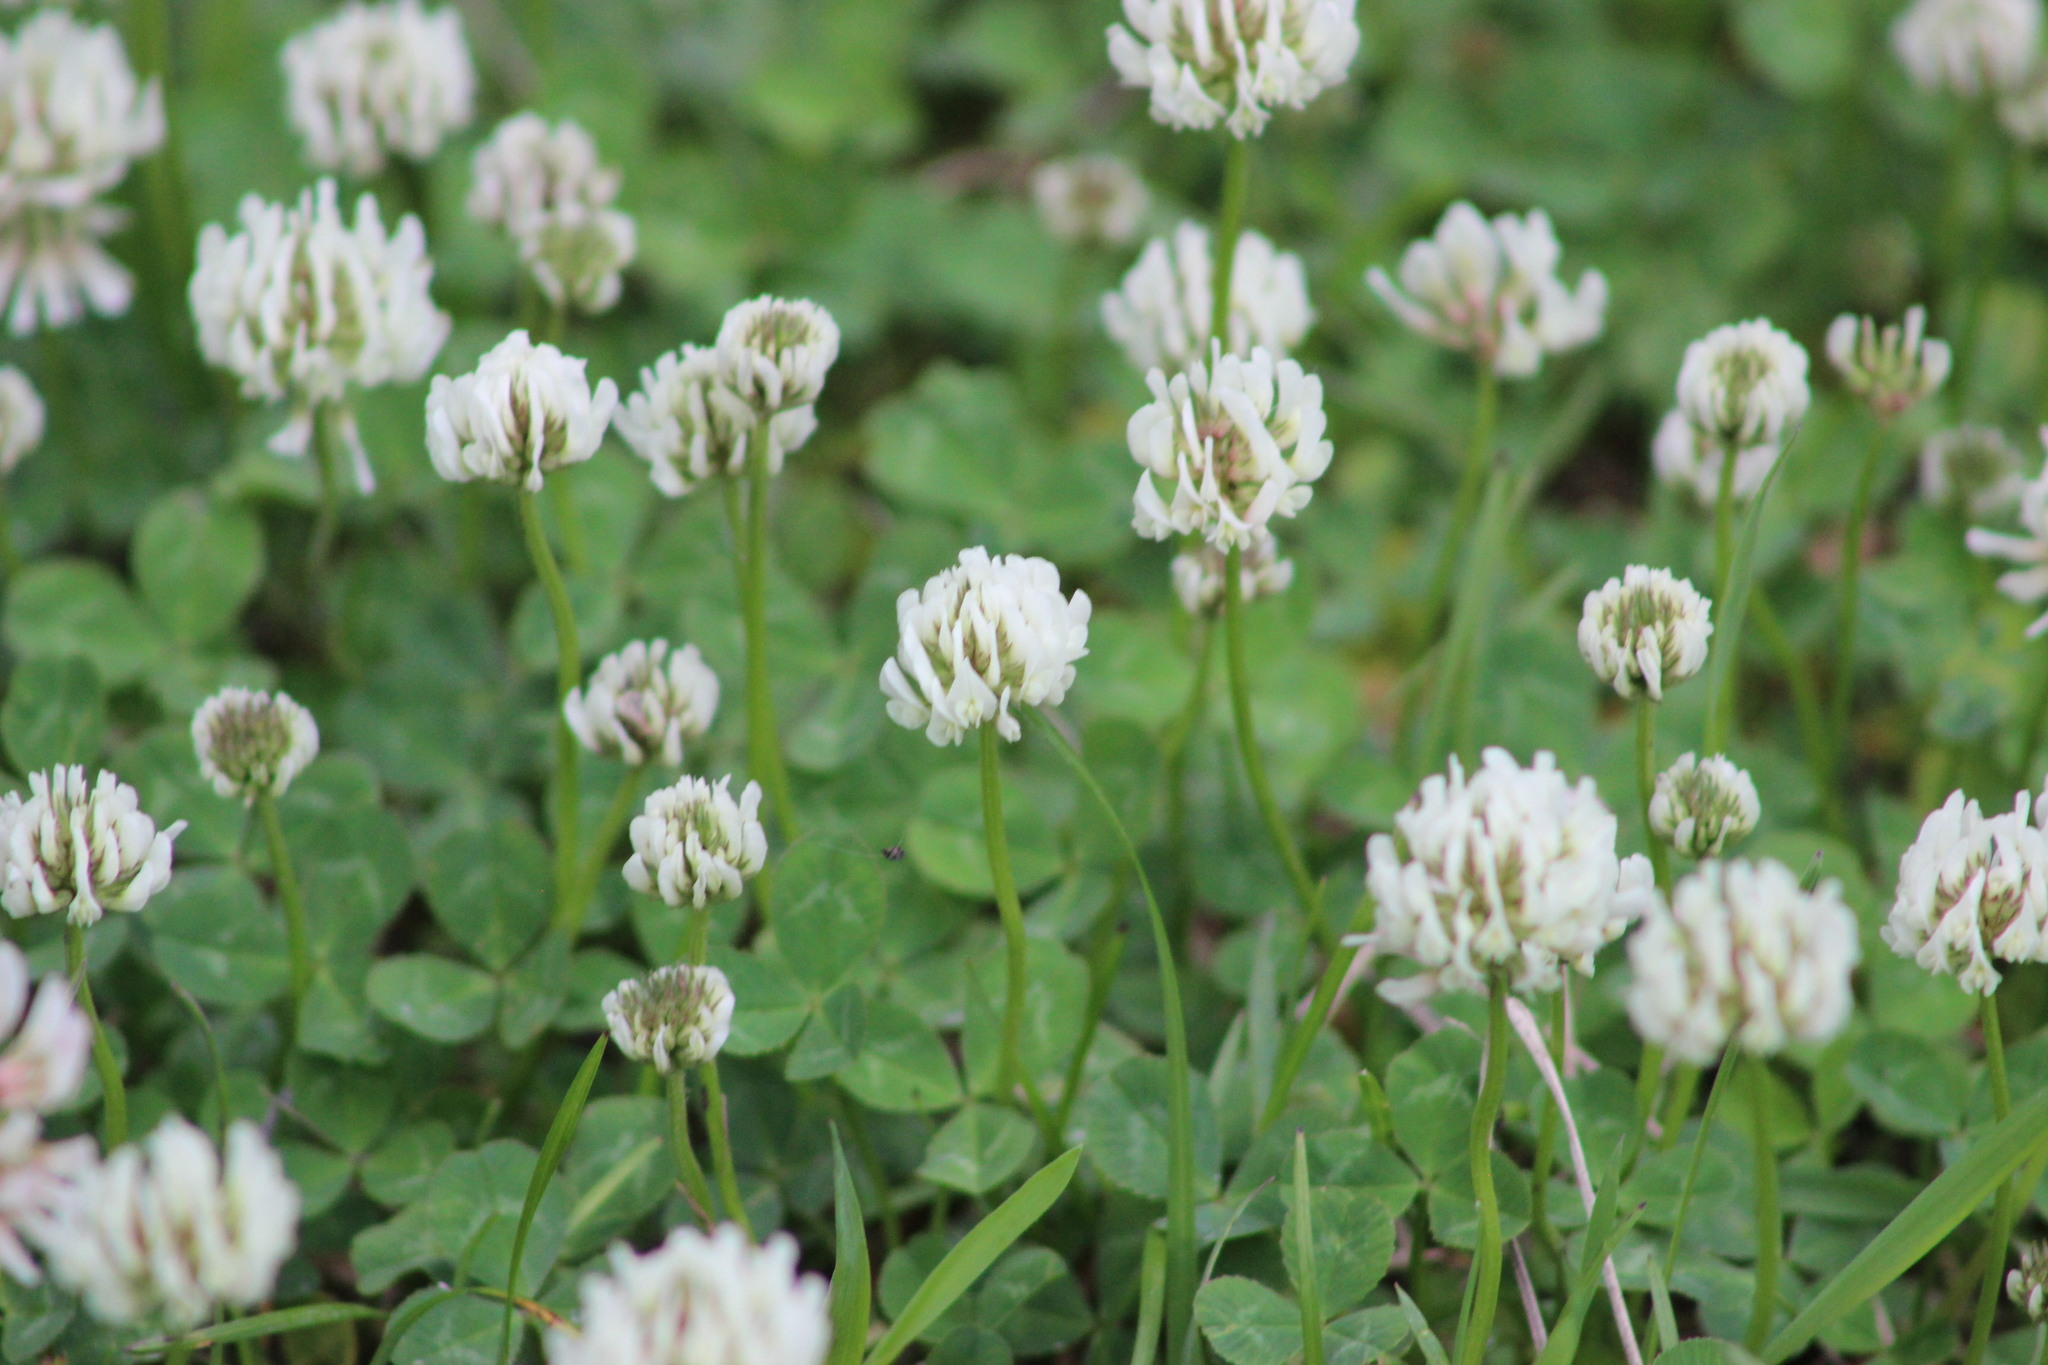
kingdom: Plantae
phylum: Tracheophyta
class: Magnoliopsida
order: Fabales
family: Fabaceae
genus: Trifolium
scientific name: Trifolium repens
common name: White clover
